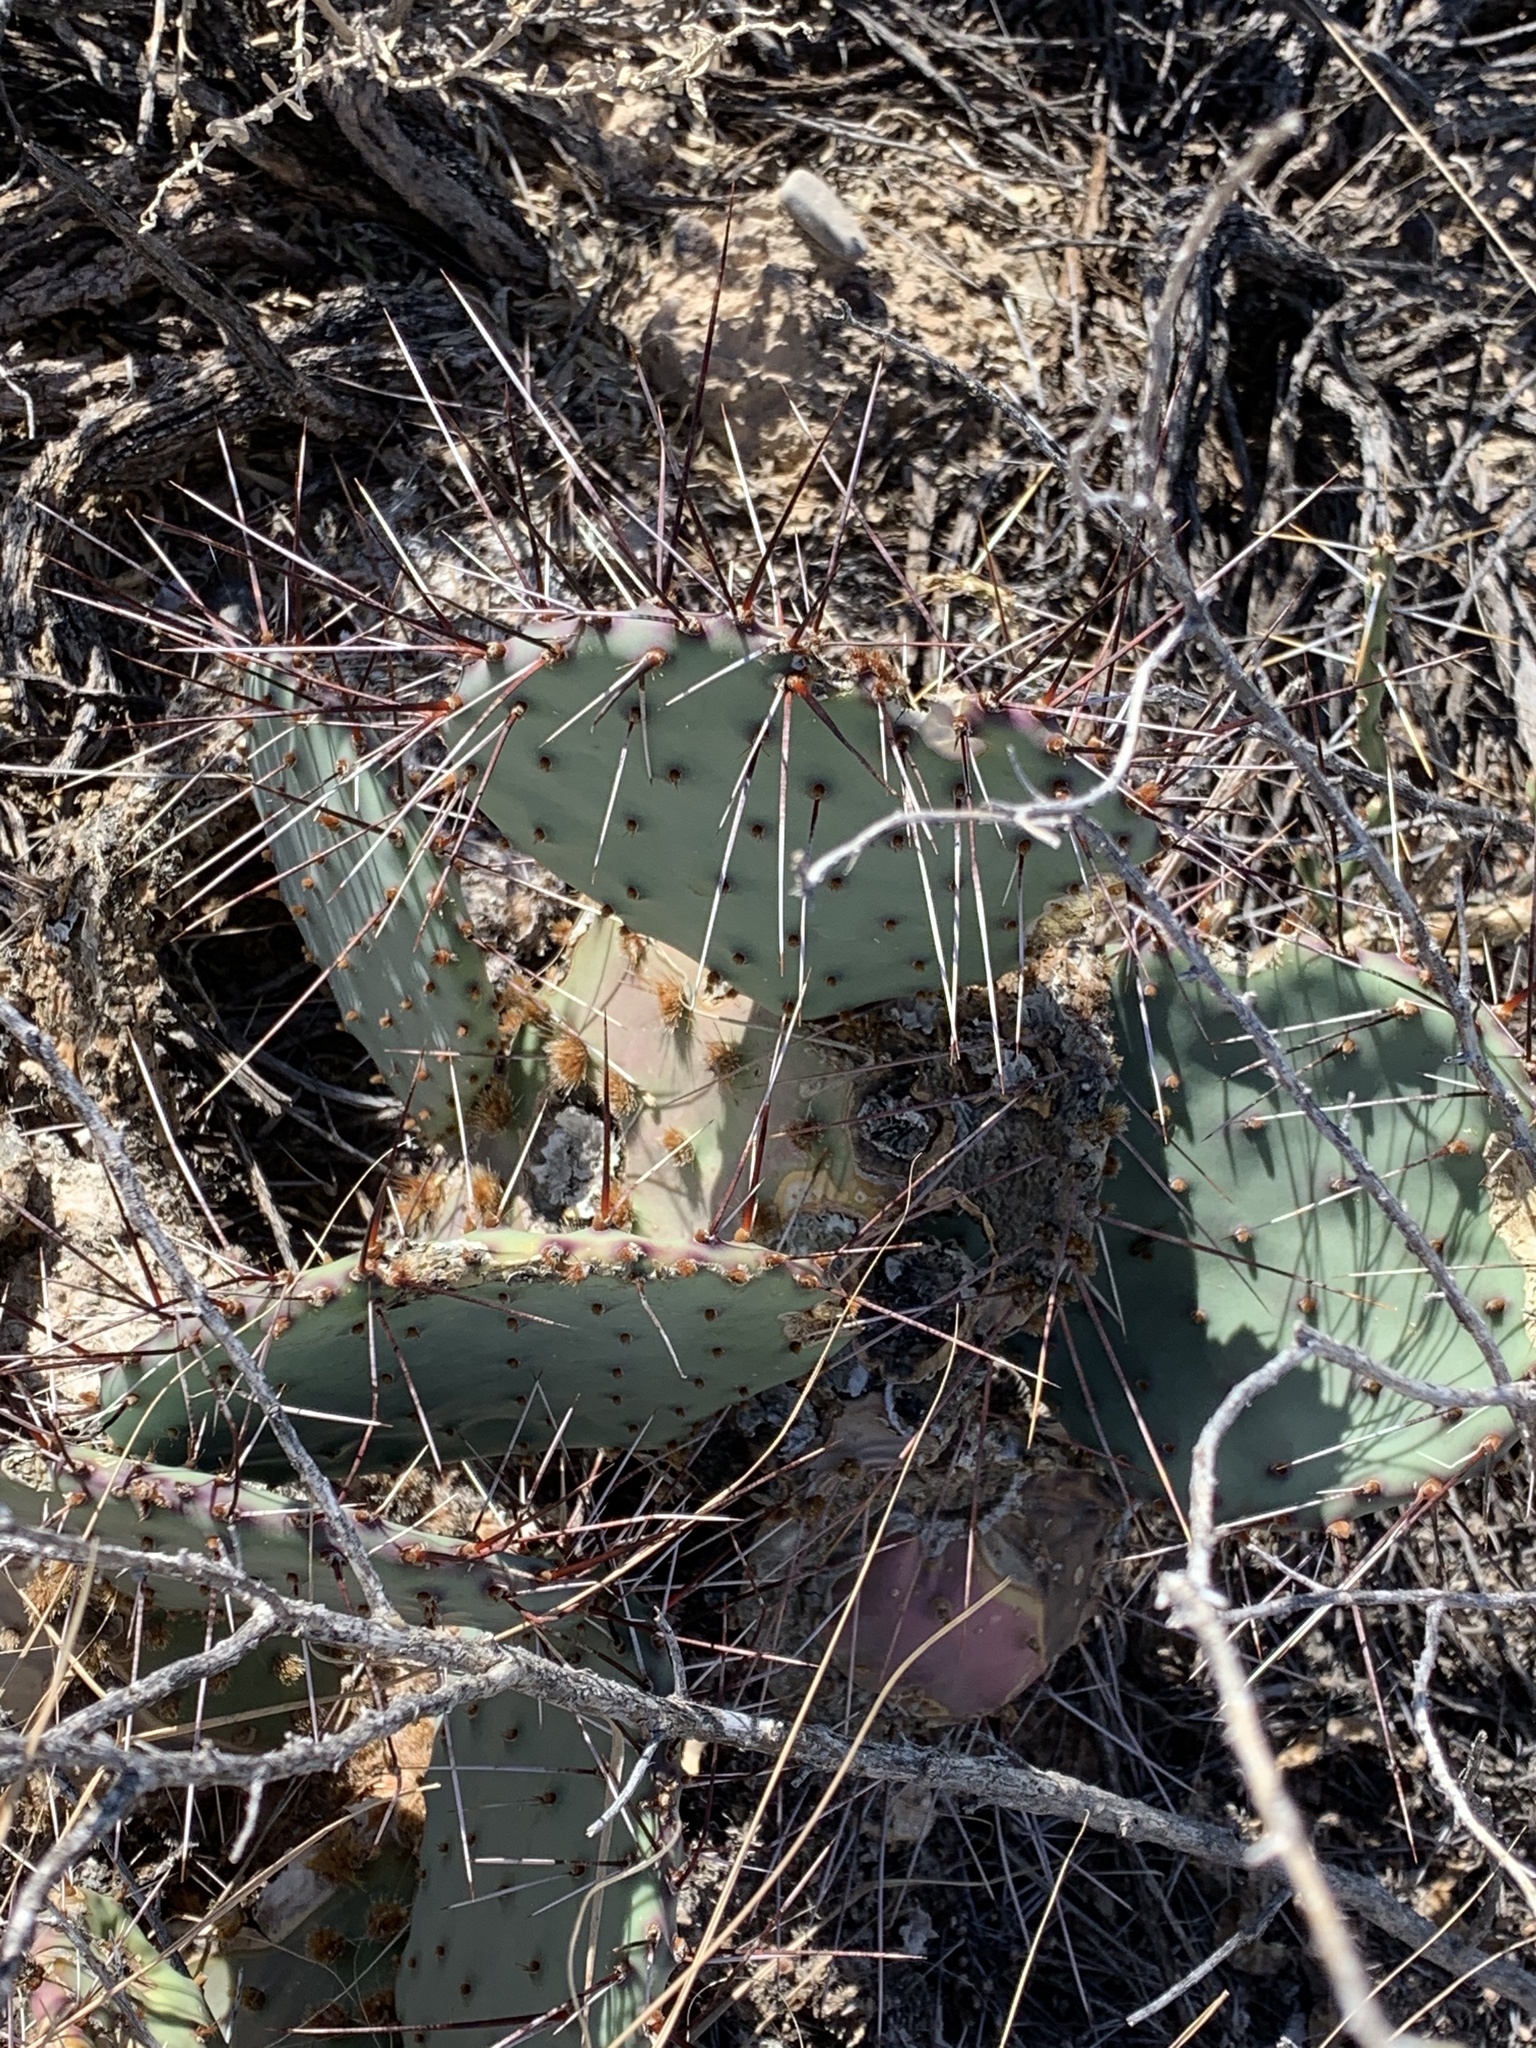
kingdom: Plantae
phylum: Tracheophyta
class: Magnoliopsida
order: Caryophyllales
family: Cactaceae
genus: Opuntia
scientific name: Opuntia macrocentra
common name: Purple prickly-pear
